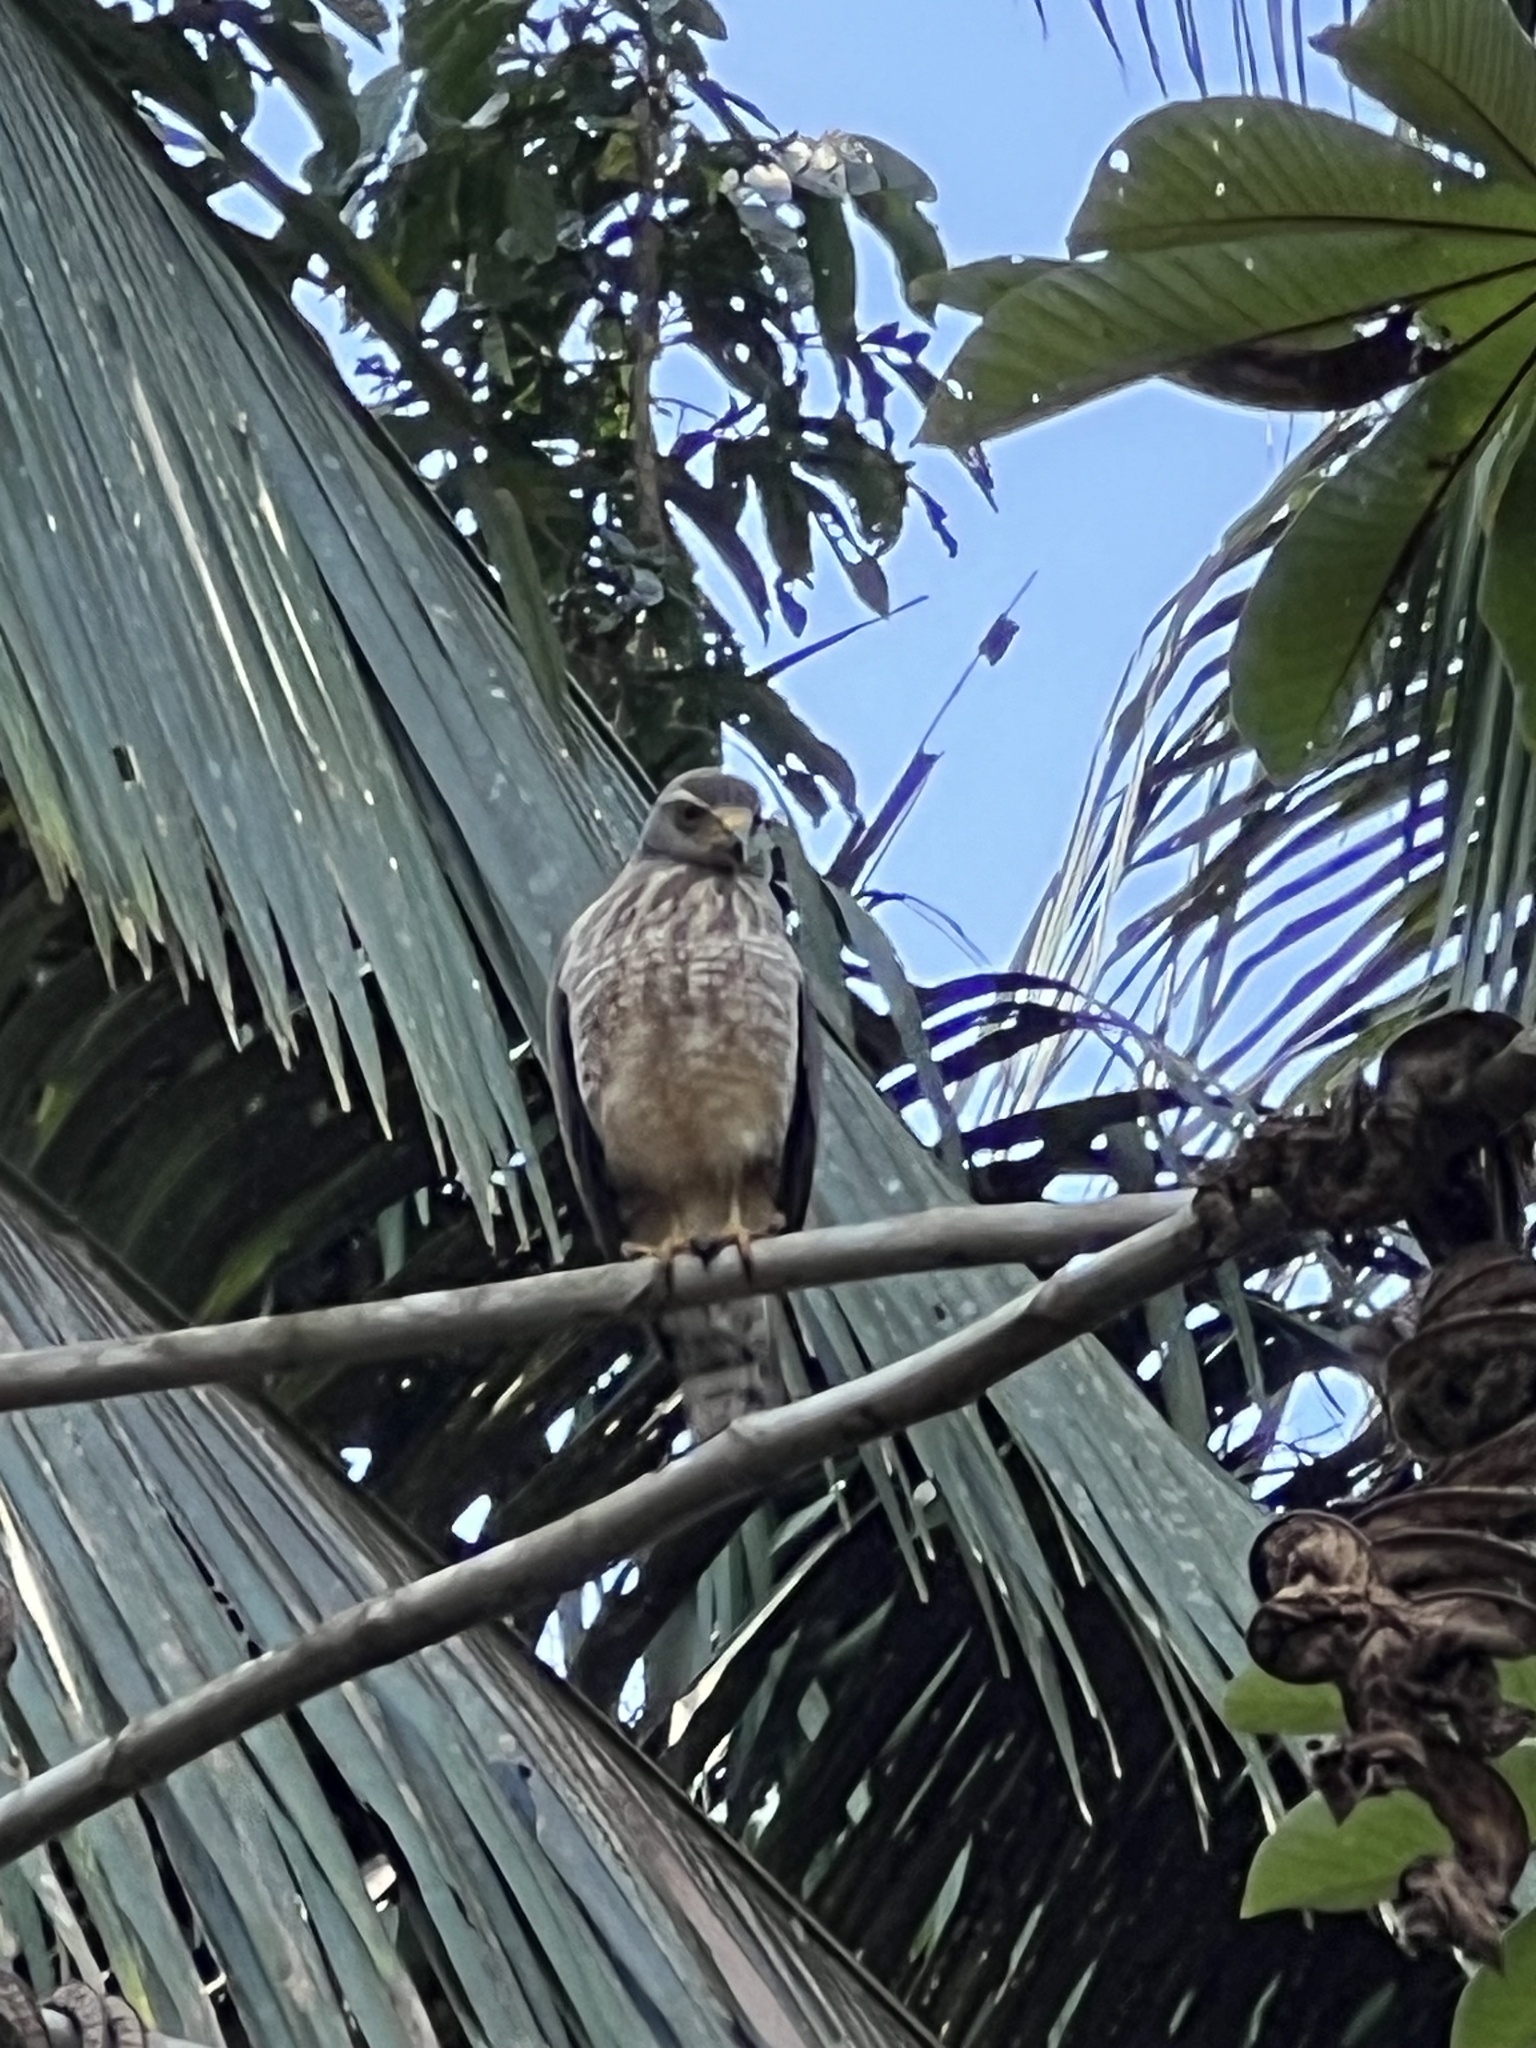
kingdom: Animalia
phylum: Chordata
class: Aves
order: Accipitriformes
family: Accipitridae
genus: Rupornis
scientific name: Rupornis magnirostris
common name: Roadside hawk
